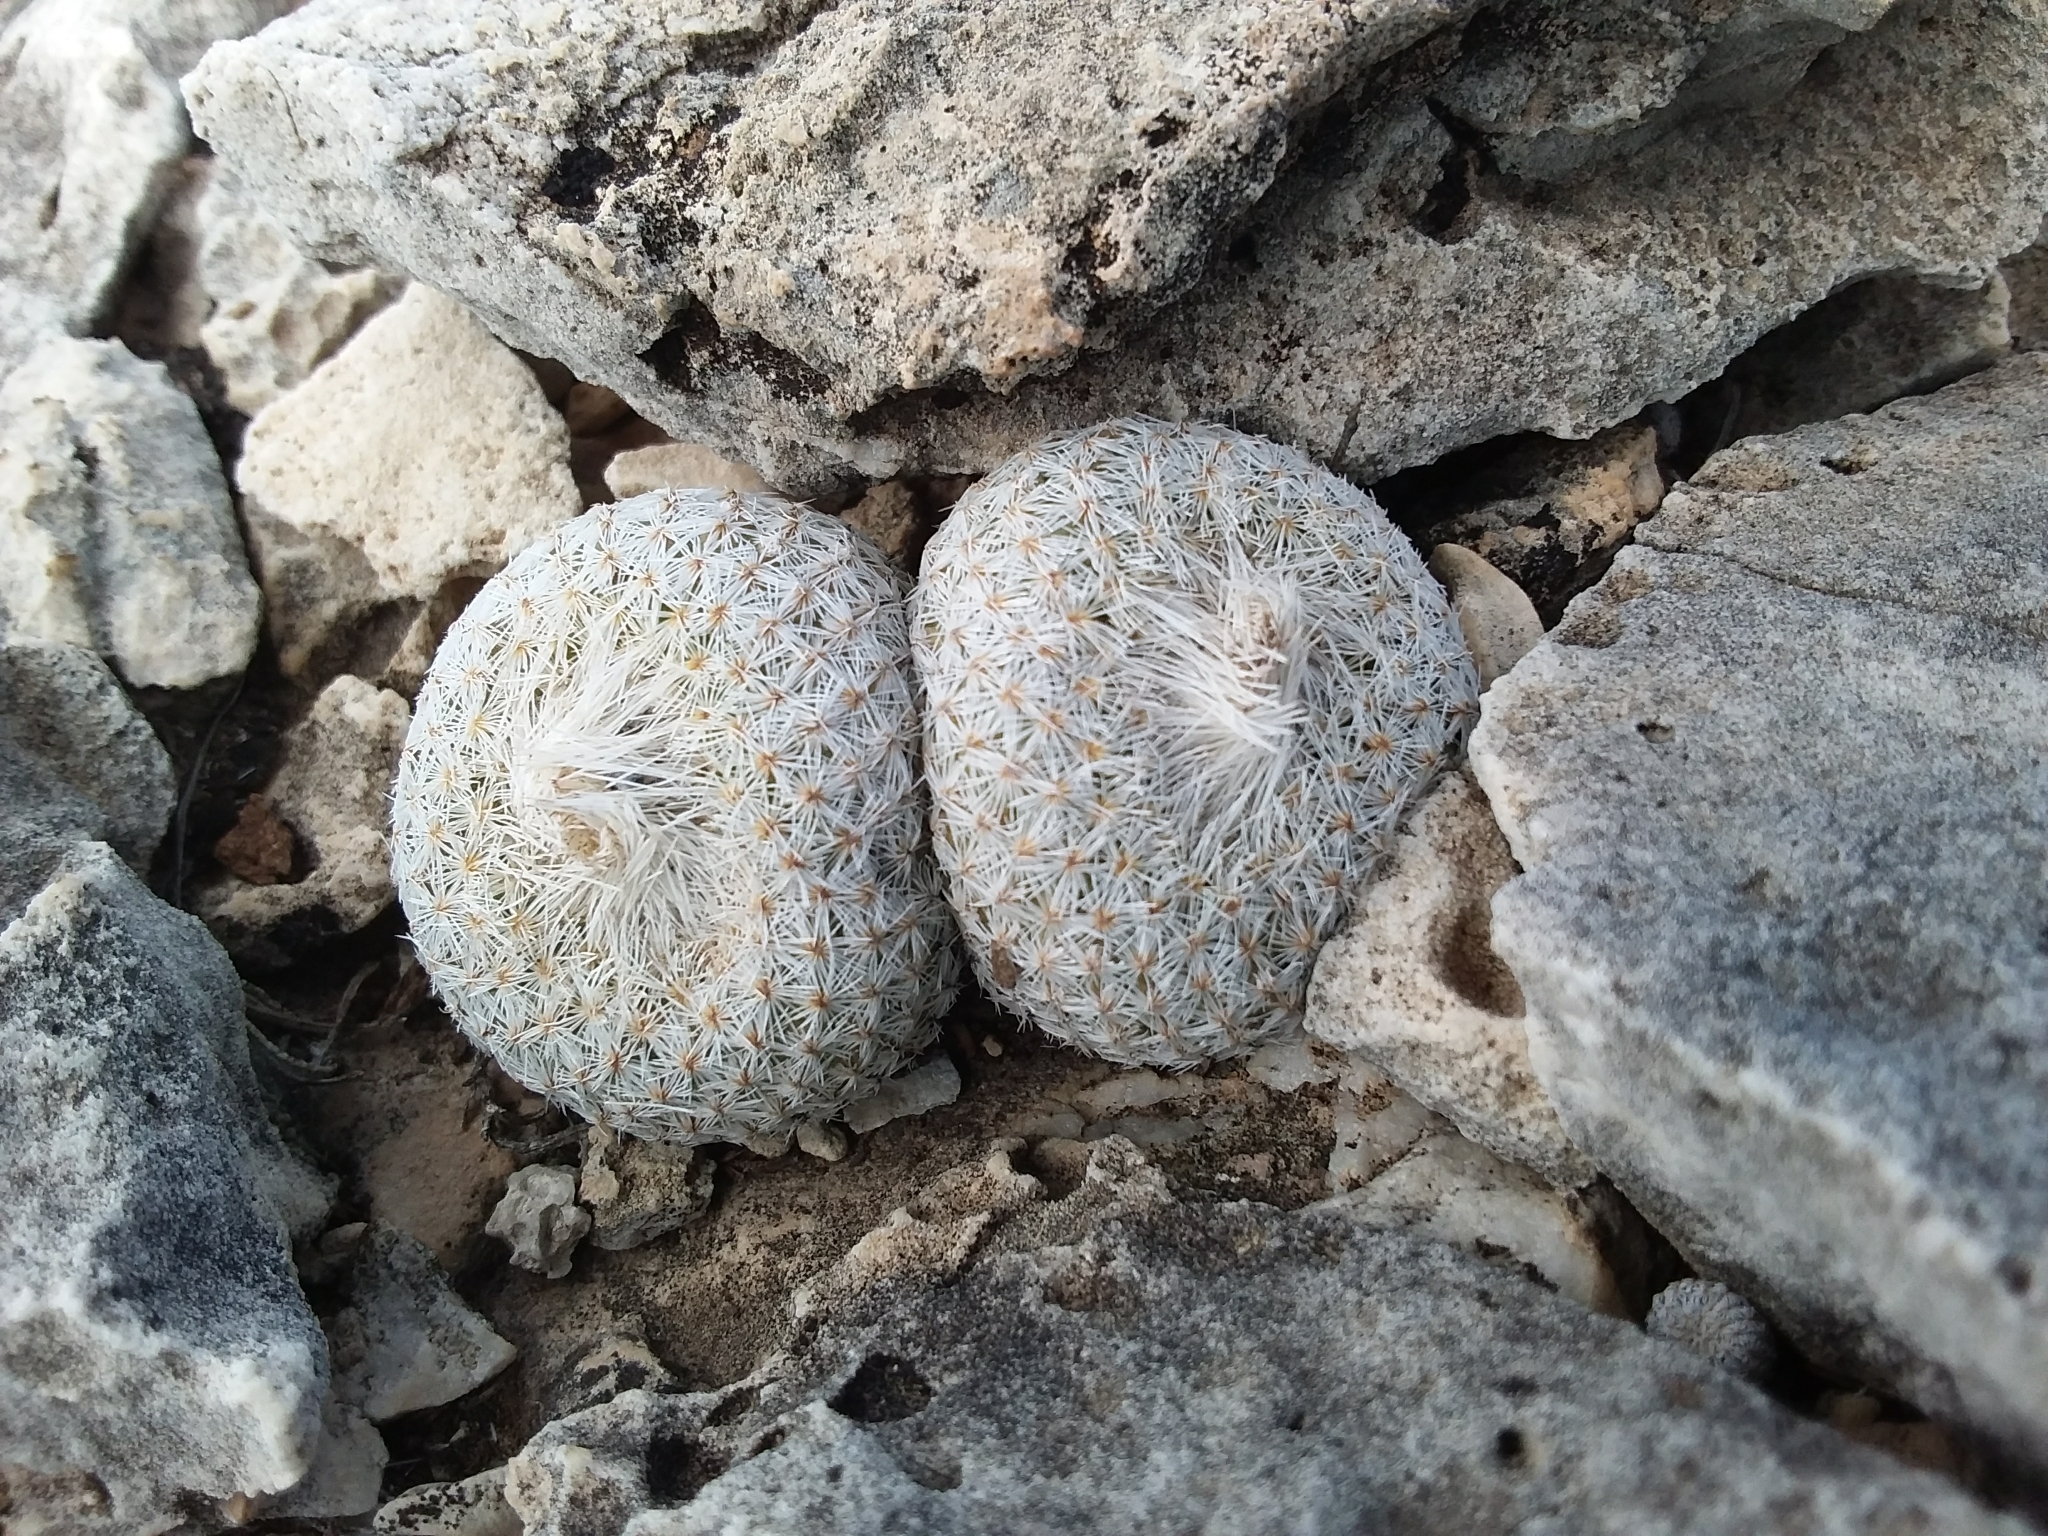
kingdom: Plantae
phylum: Tracheophyta
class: Magnoliopsida
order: Caryophyllales
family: Cactaceae
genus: Epithelantha
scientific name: Epithelantha micromeris
